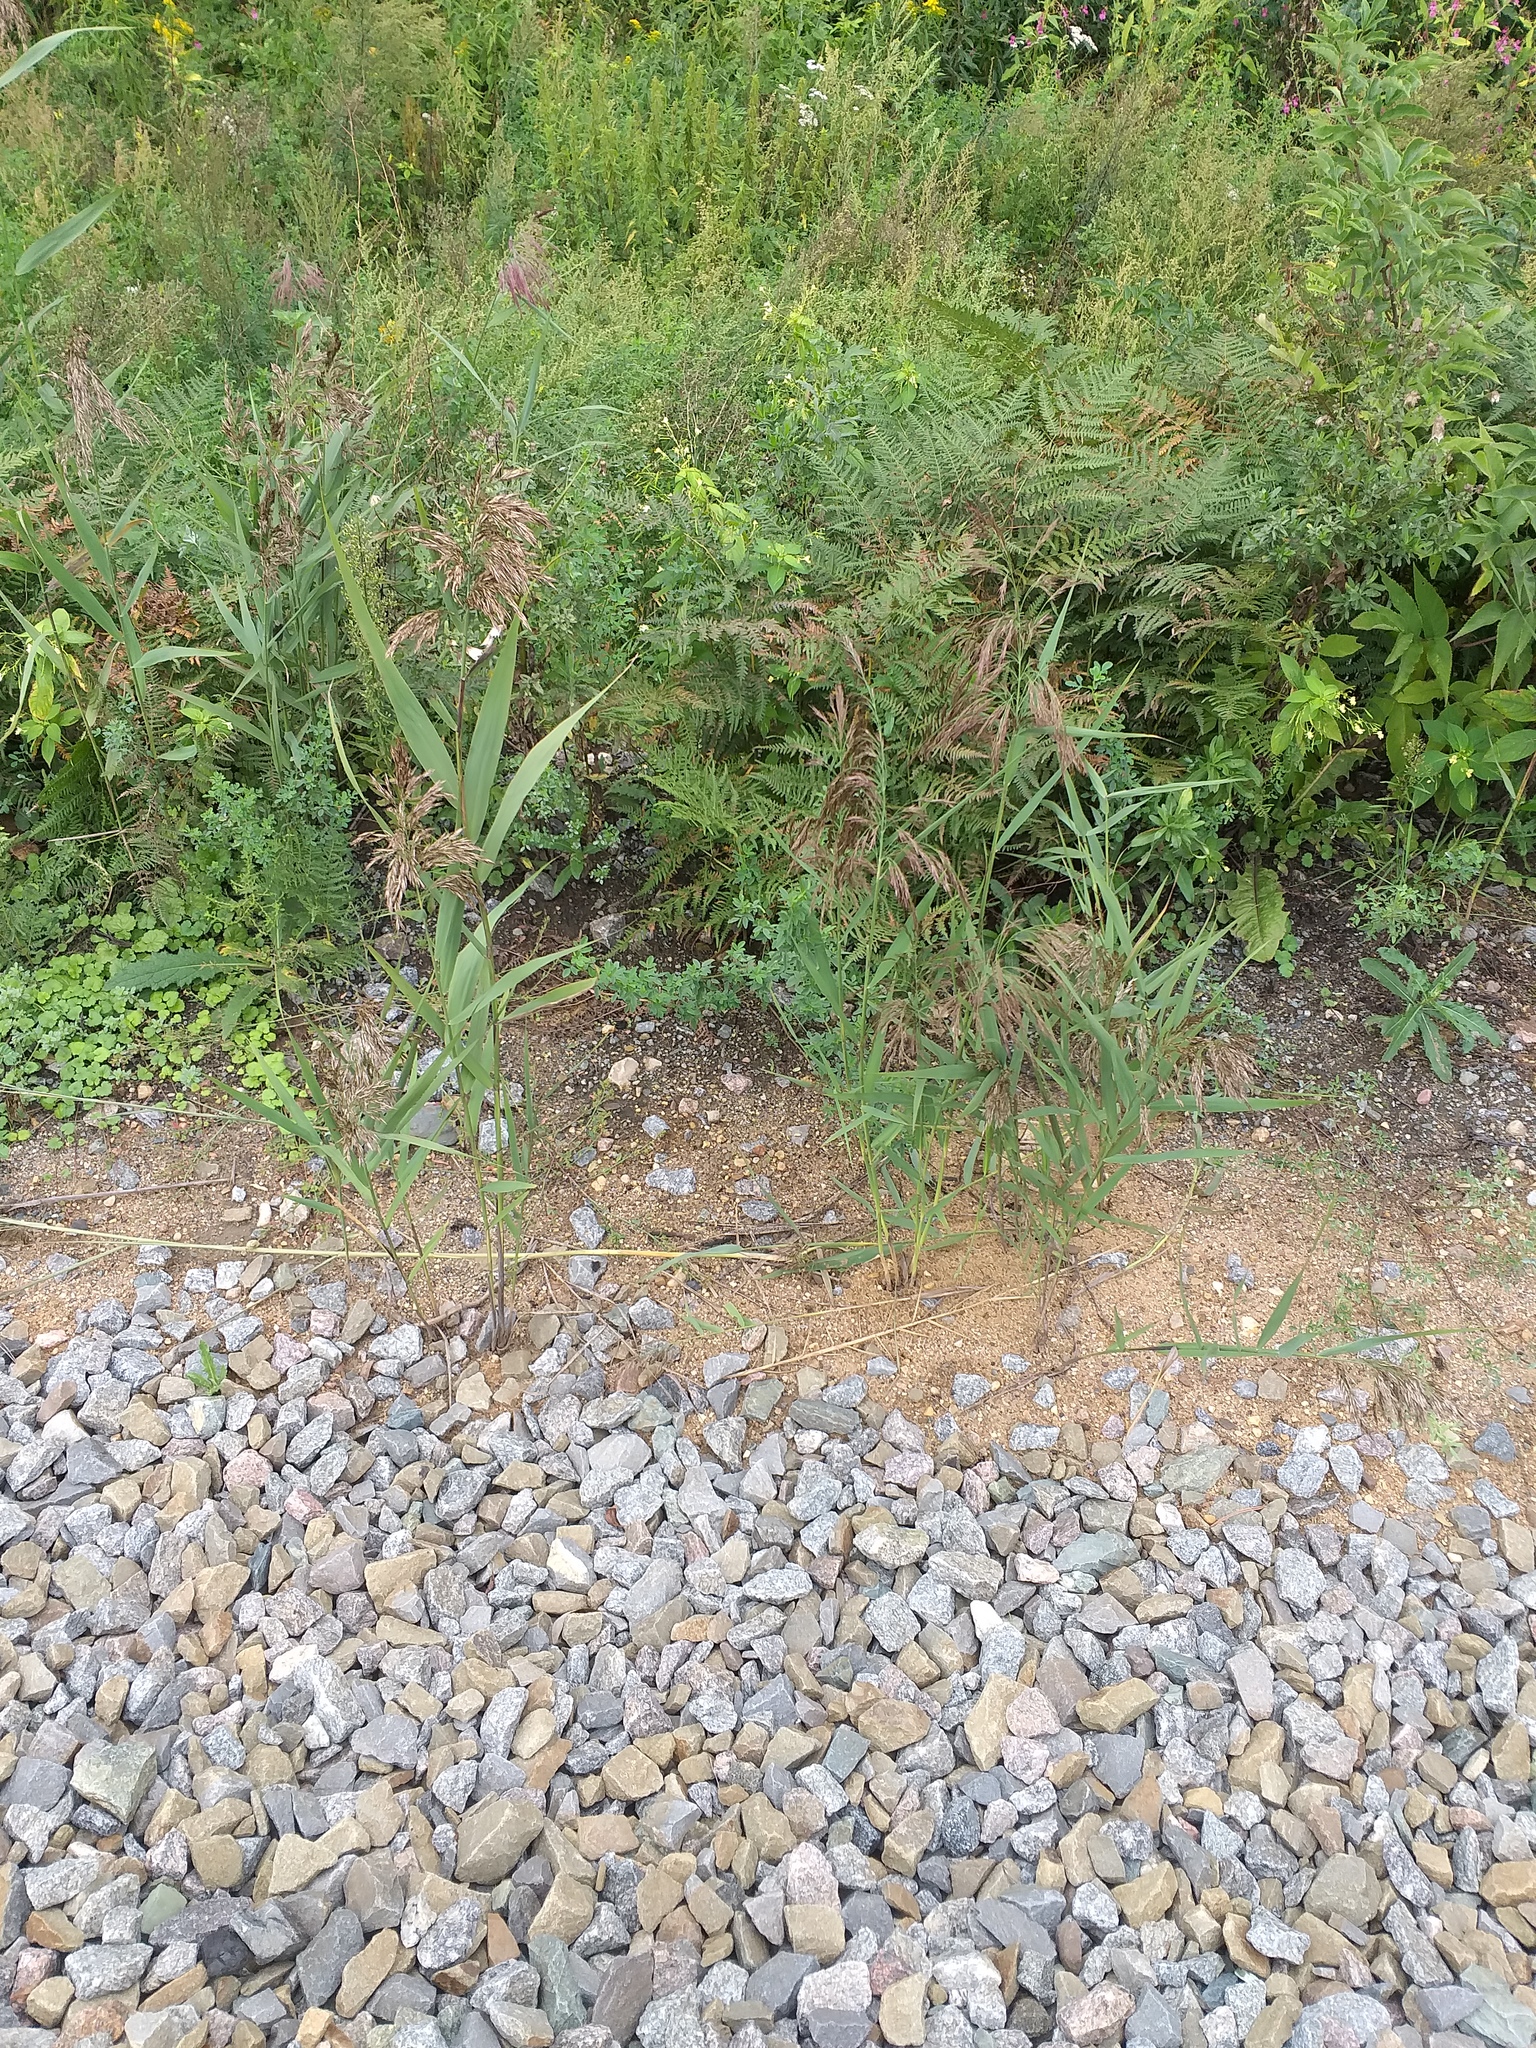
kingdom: Plantae
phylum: Tracheophyta
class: Liliopsida
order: Poales
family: Poaceae
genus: Phragmites
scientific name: Phragmites australis
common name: Common reed
